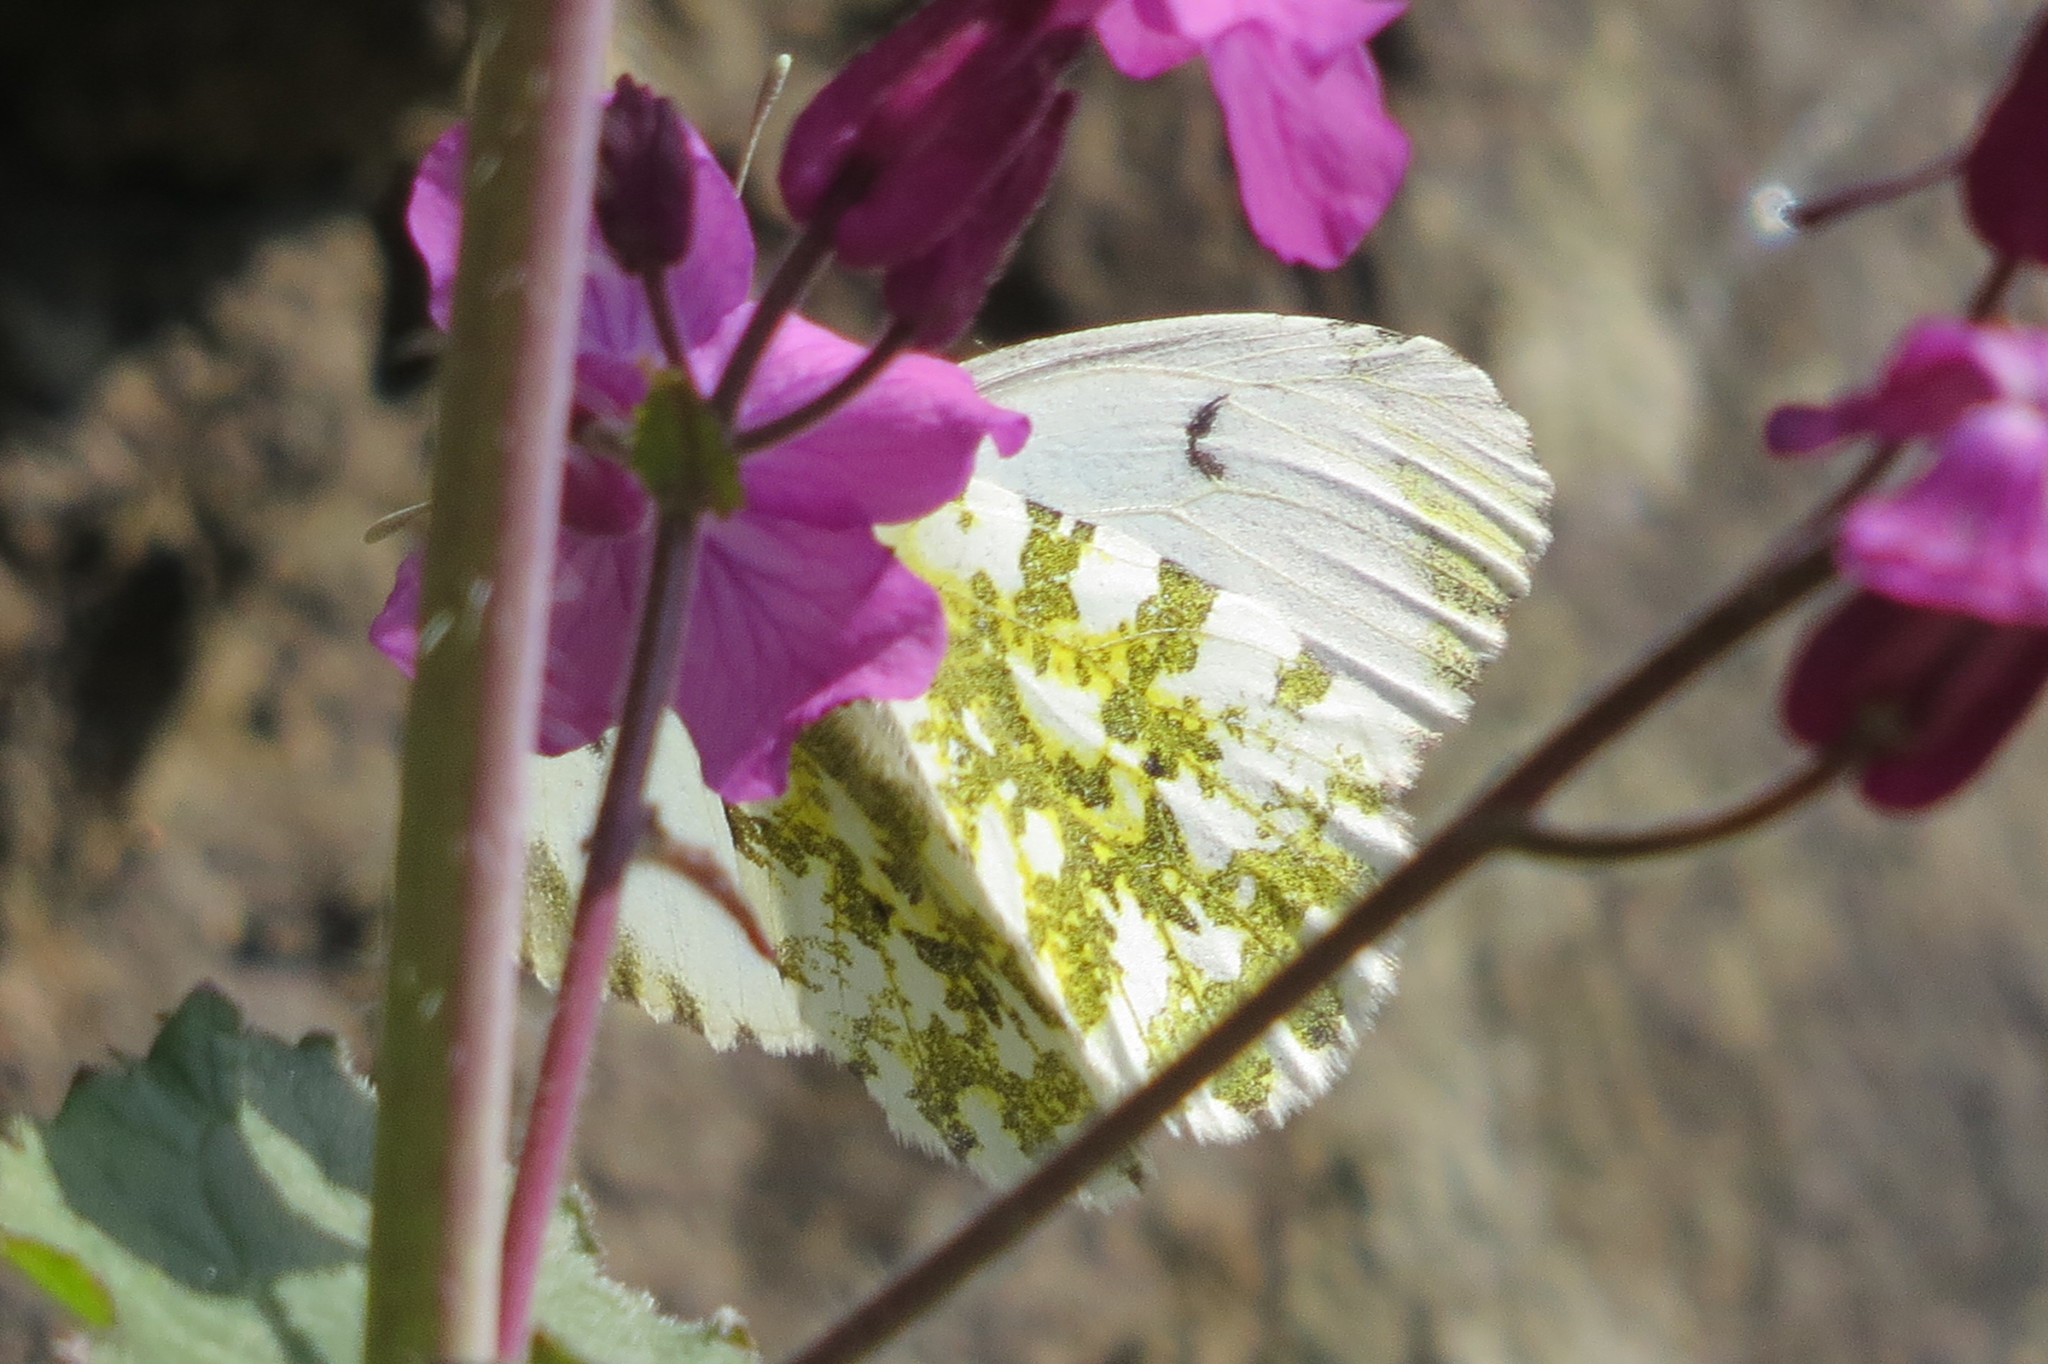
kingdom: Animalia
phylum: Arthropoda
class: Insecta
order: Lepidoptera
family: Pieridae
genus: Anthocharis
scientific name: Anthocharis cardamines
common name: Orange-tip
